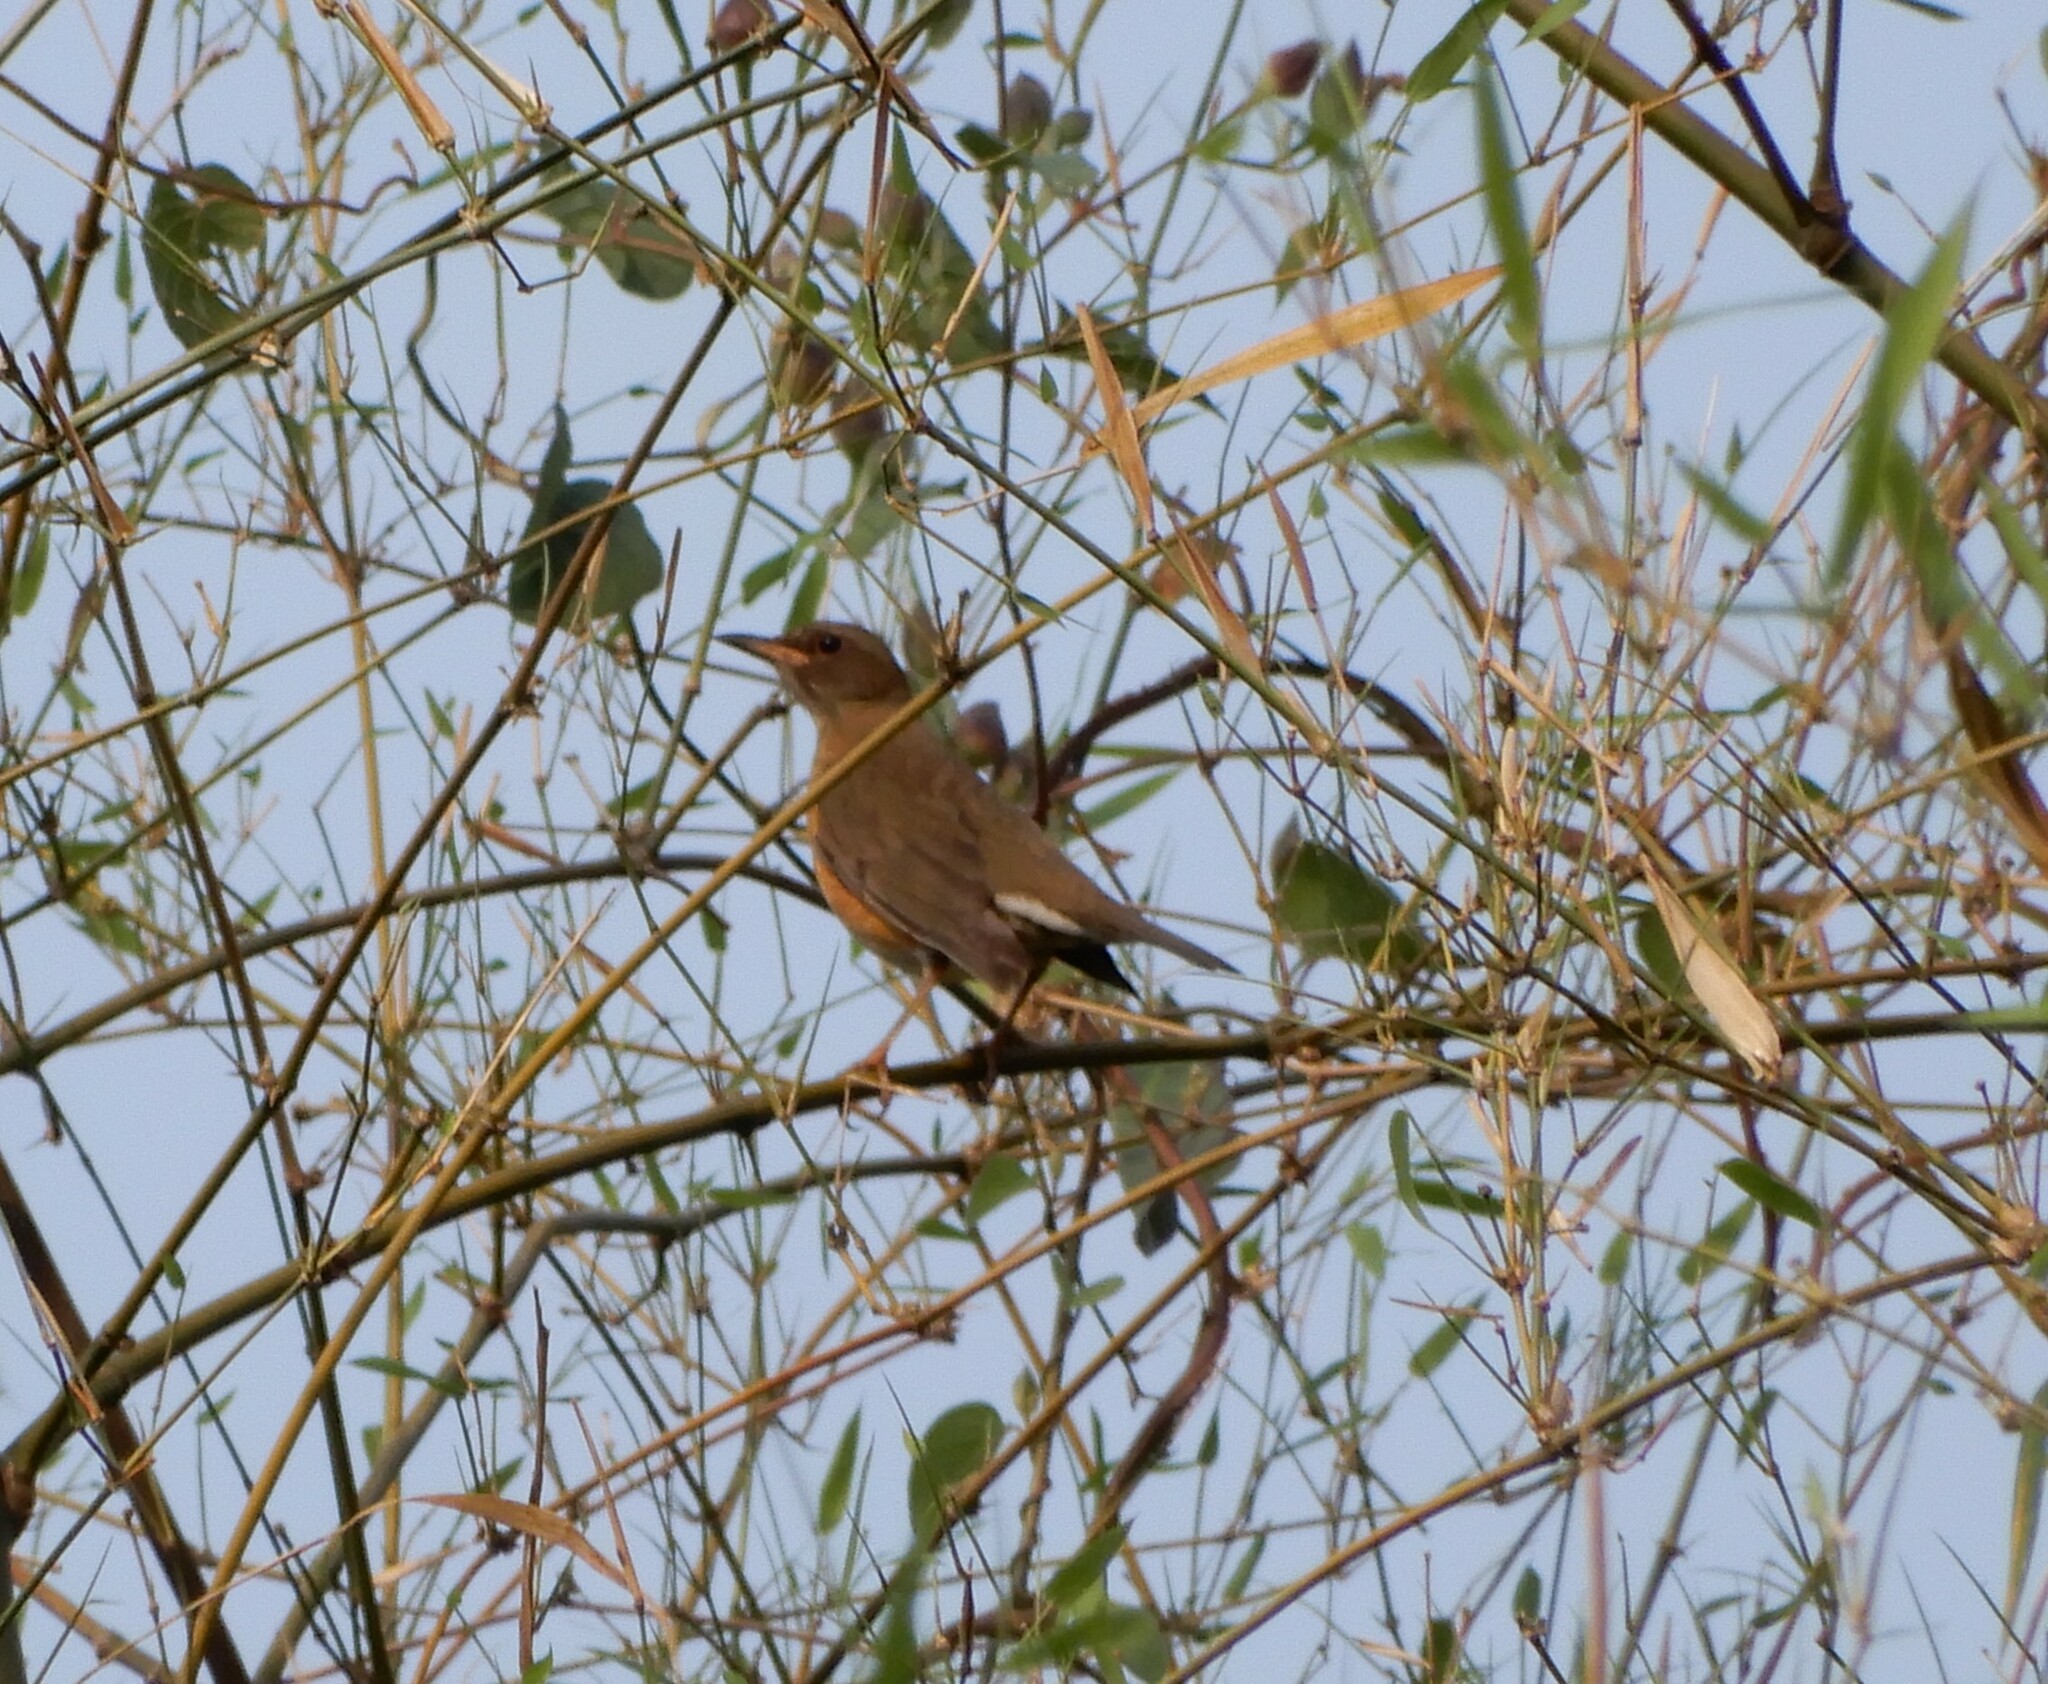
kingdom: Animalia
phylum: Chordata
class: Aves
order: Passeriformes
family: Turdidae
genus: Turdus
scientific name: Turdus chrysolaus
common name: Brown-headed thrush
